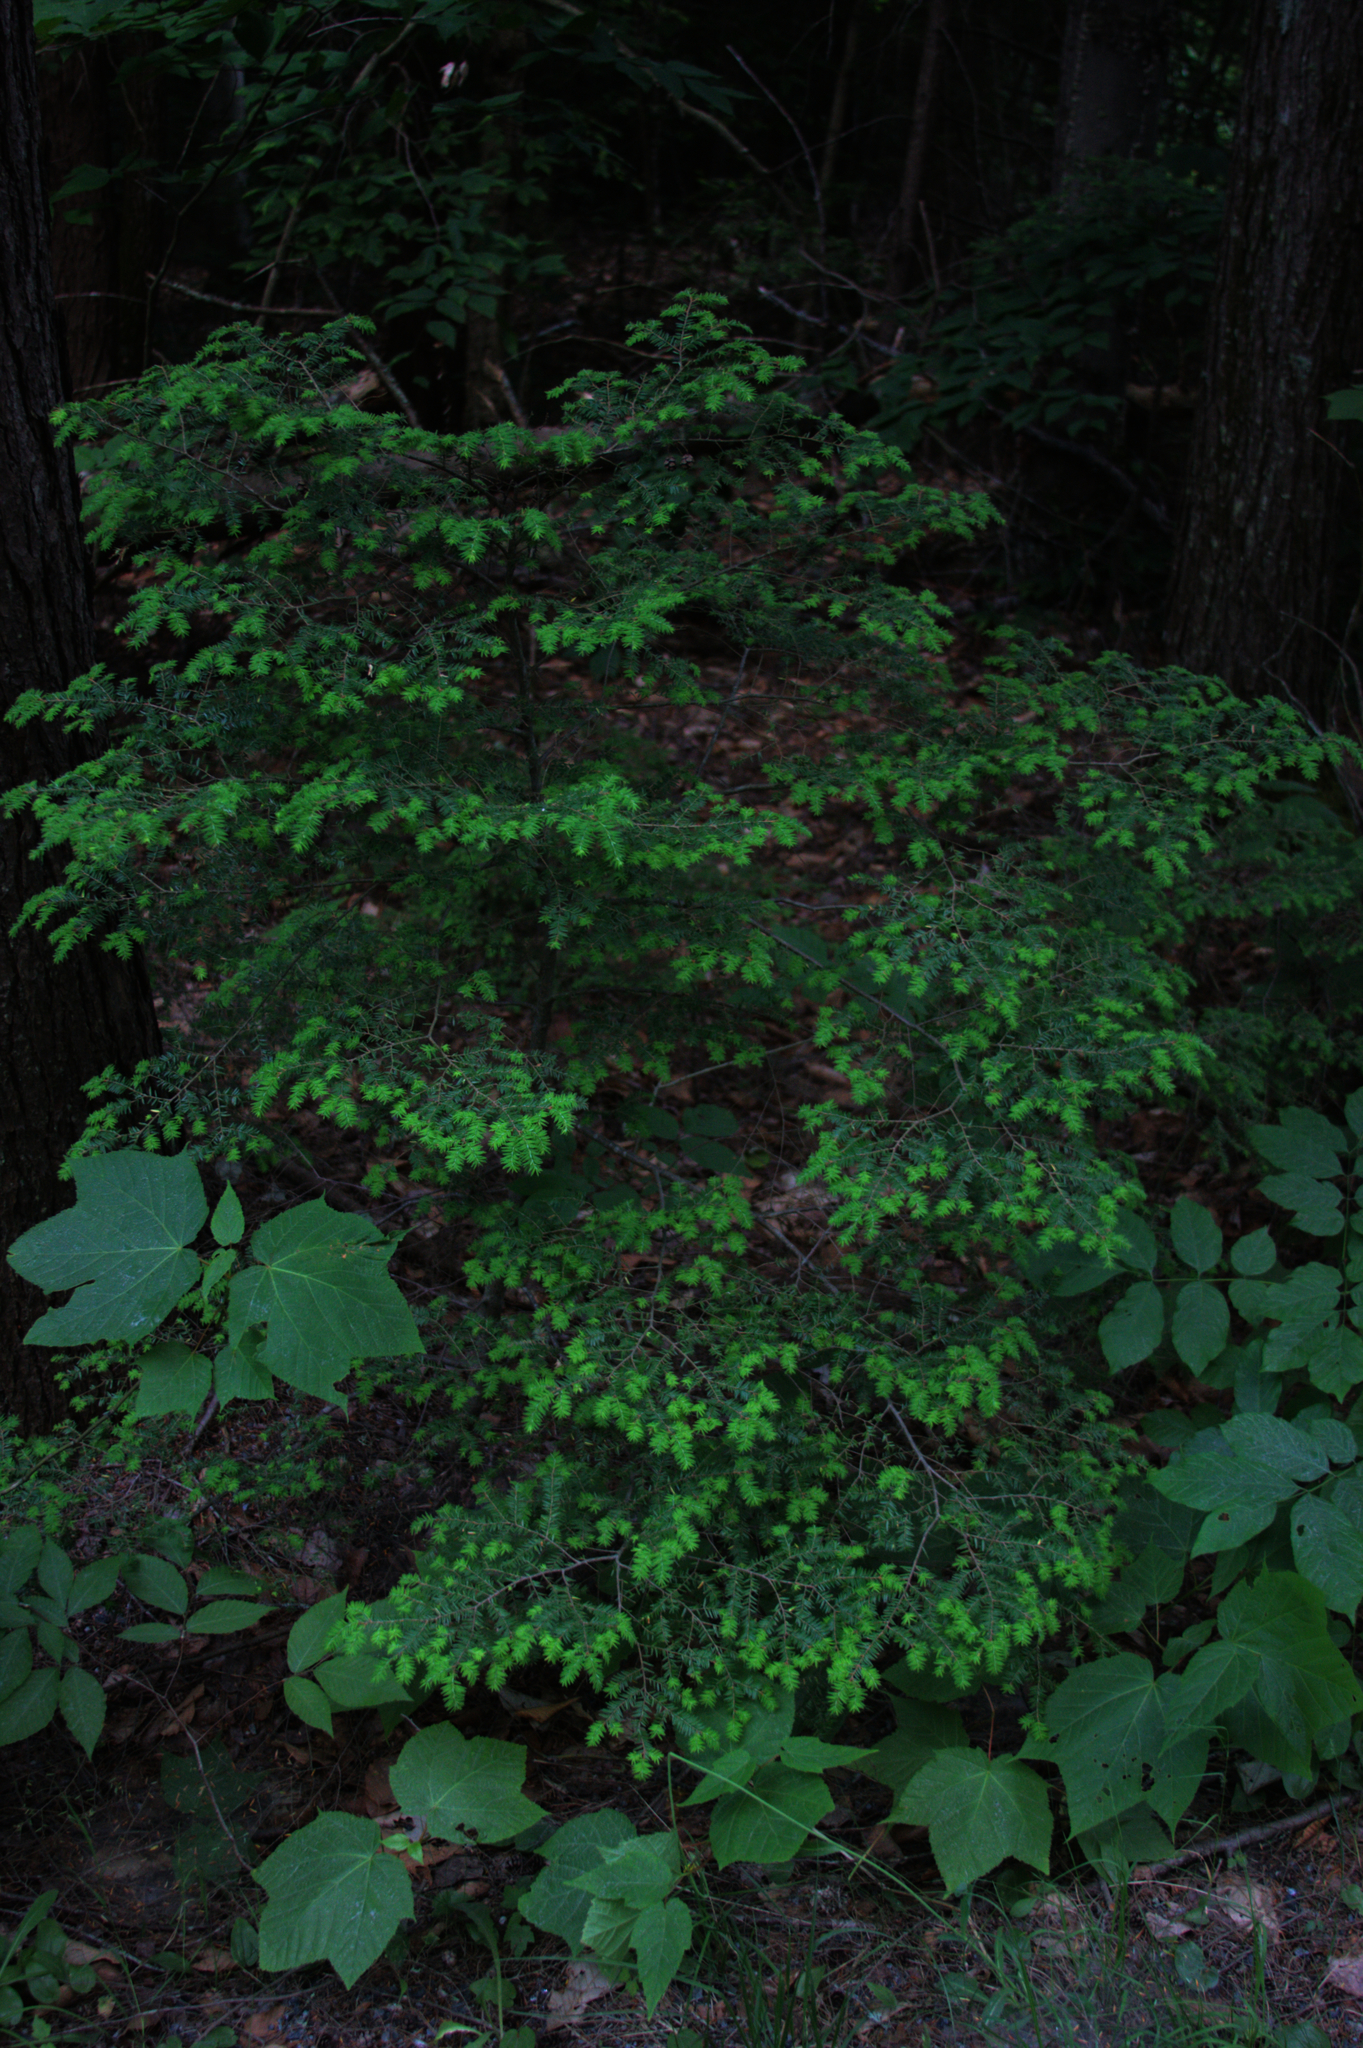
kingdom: Plantae
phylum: Tracheophyta
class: Pinopsida
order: Pinales
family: Pinaceae
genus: Tsuga
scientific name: Tsuga canadensis
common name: Eastern hemlock
